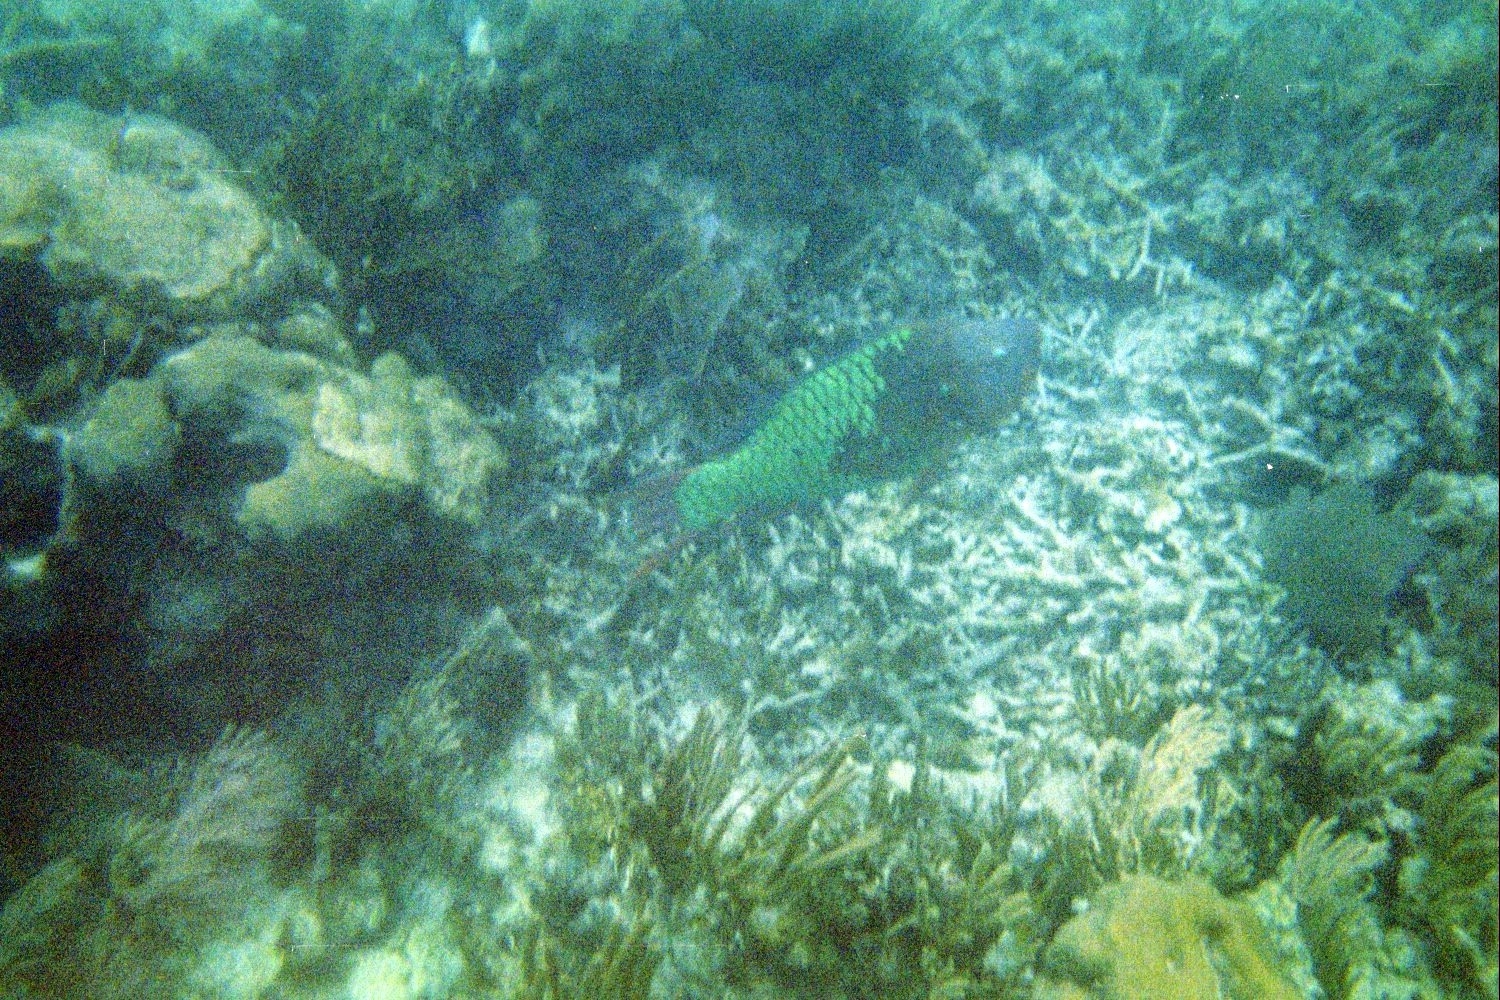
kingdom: Animalia
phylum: Chordata
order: Perciformes
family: Scaridae
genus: Scarus
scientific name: Scarus guacamaia
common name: Rainbow parrotfish
